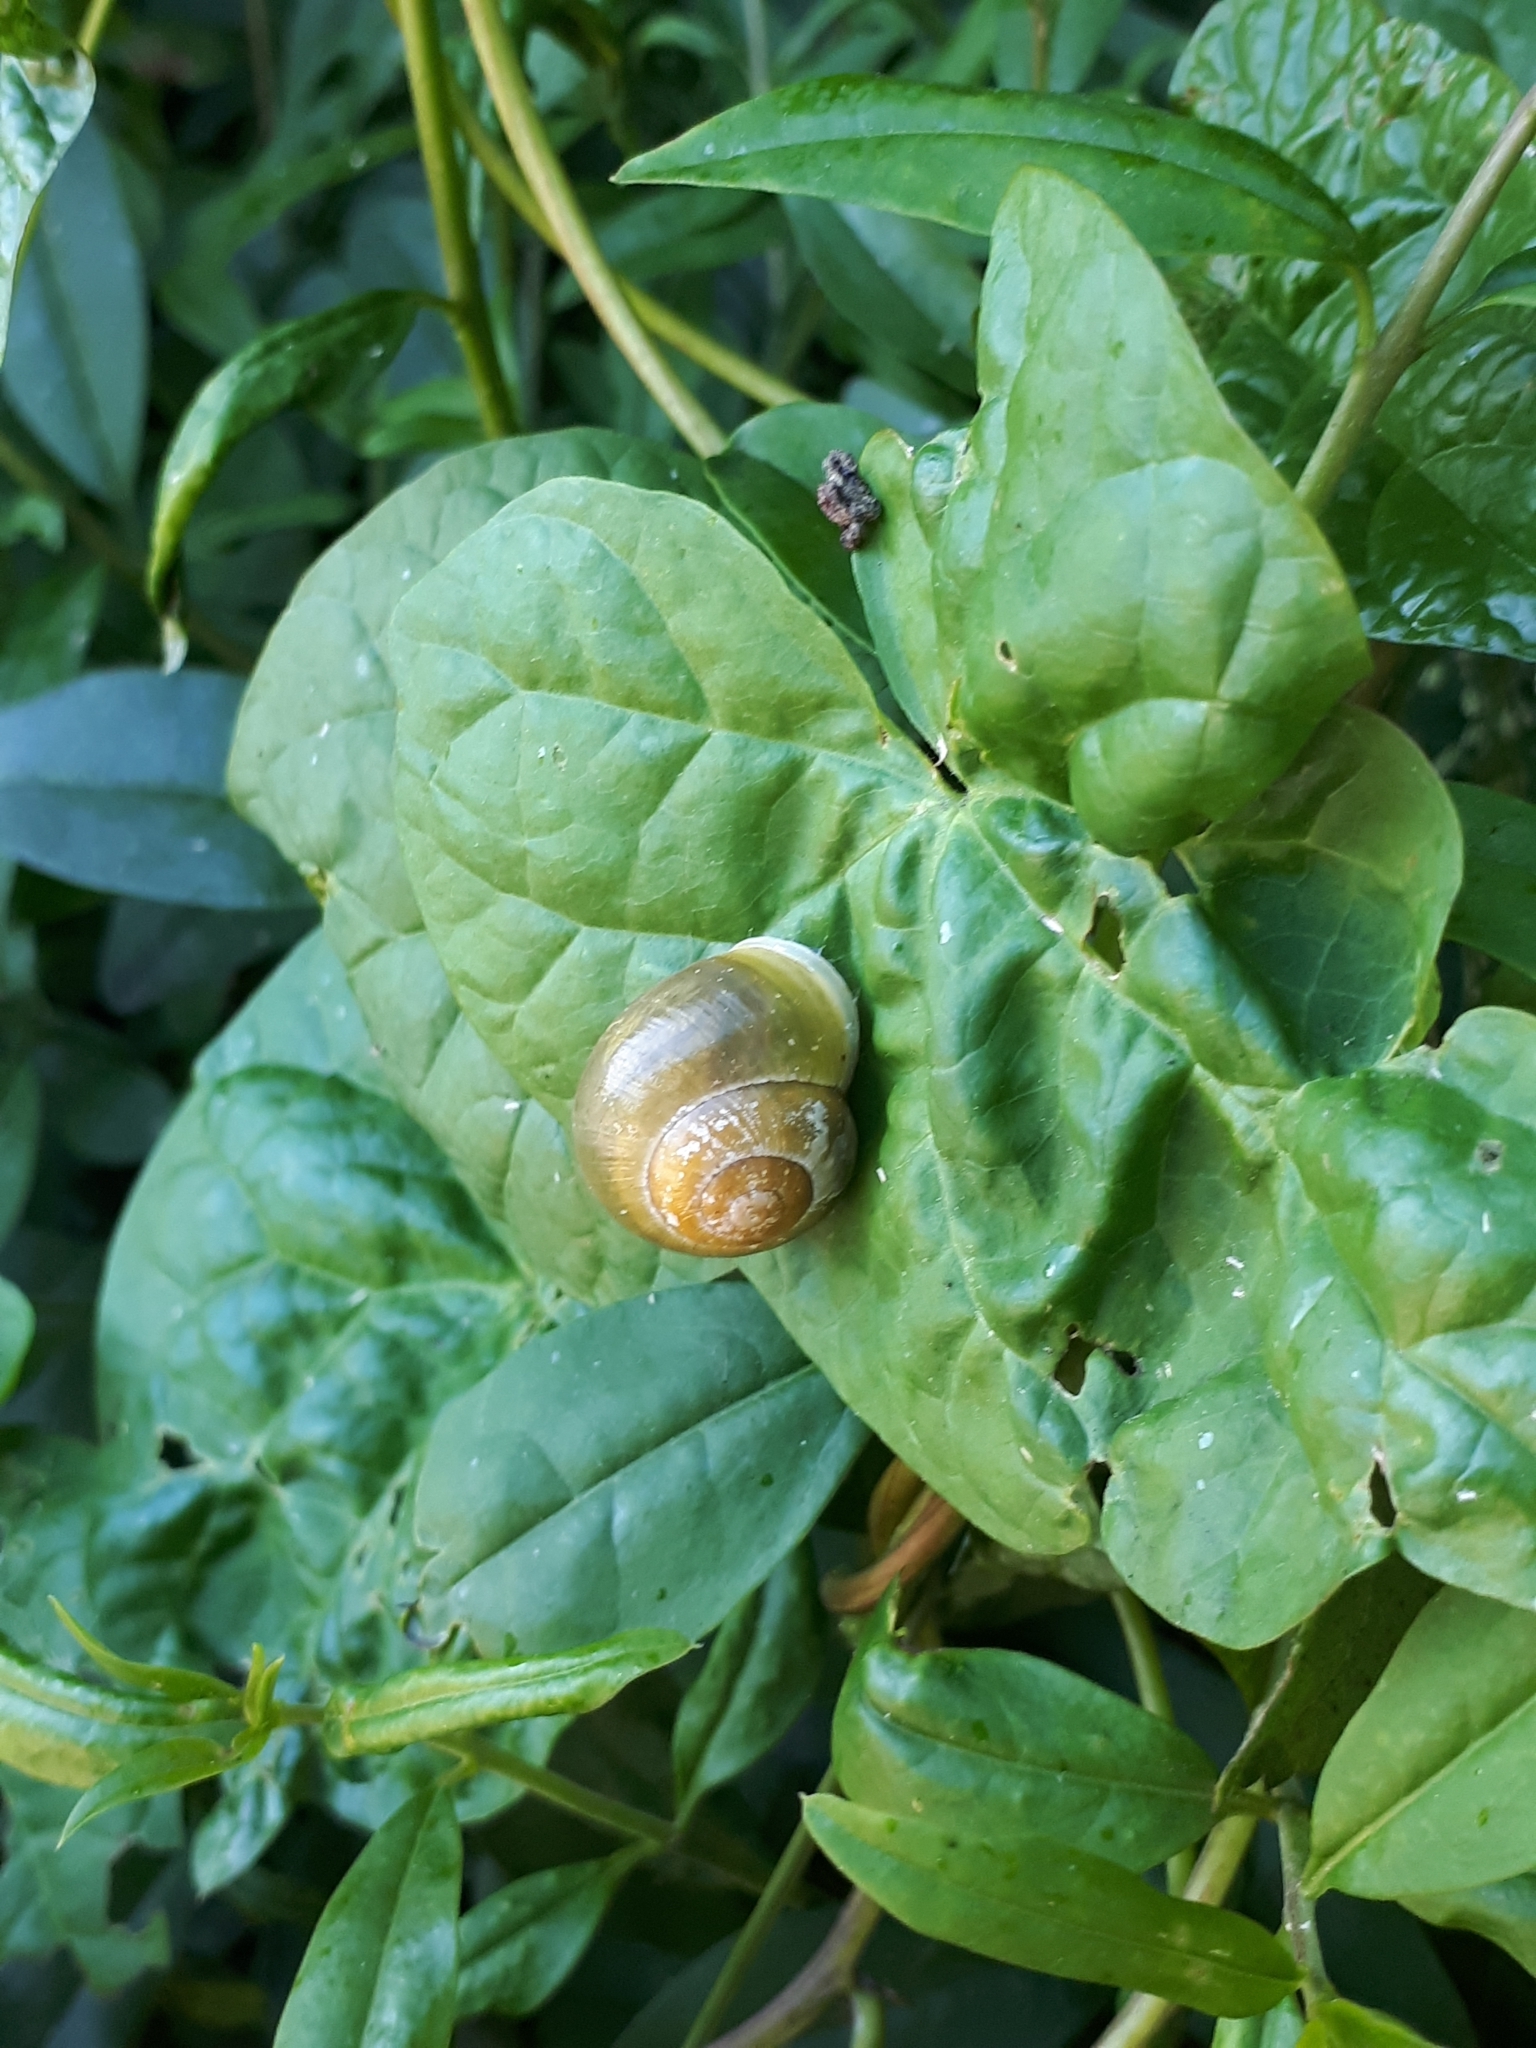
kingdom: Animalia
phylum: Mollusca
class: Gastropoda
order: Stylommatophora
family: Helicidae
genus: Cepaea
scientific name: Cepaea hortensis
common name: White-lip gardensnail
